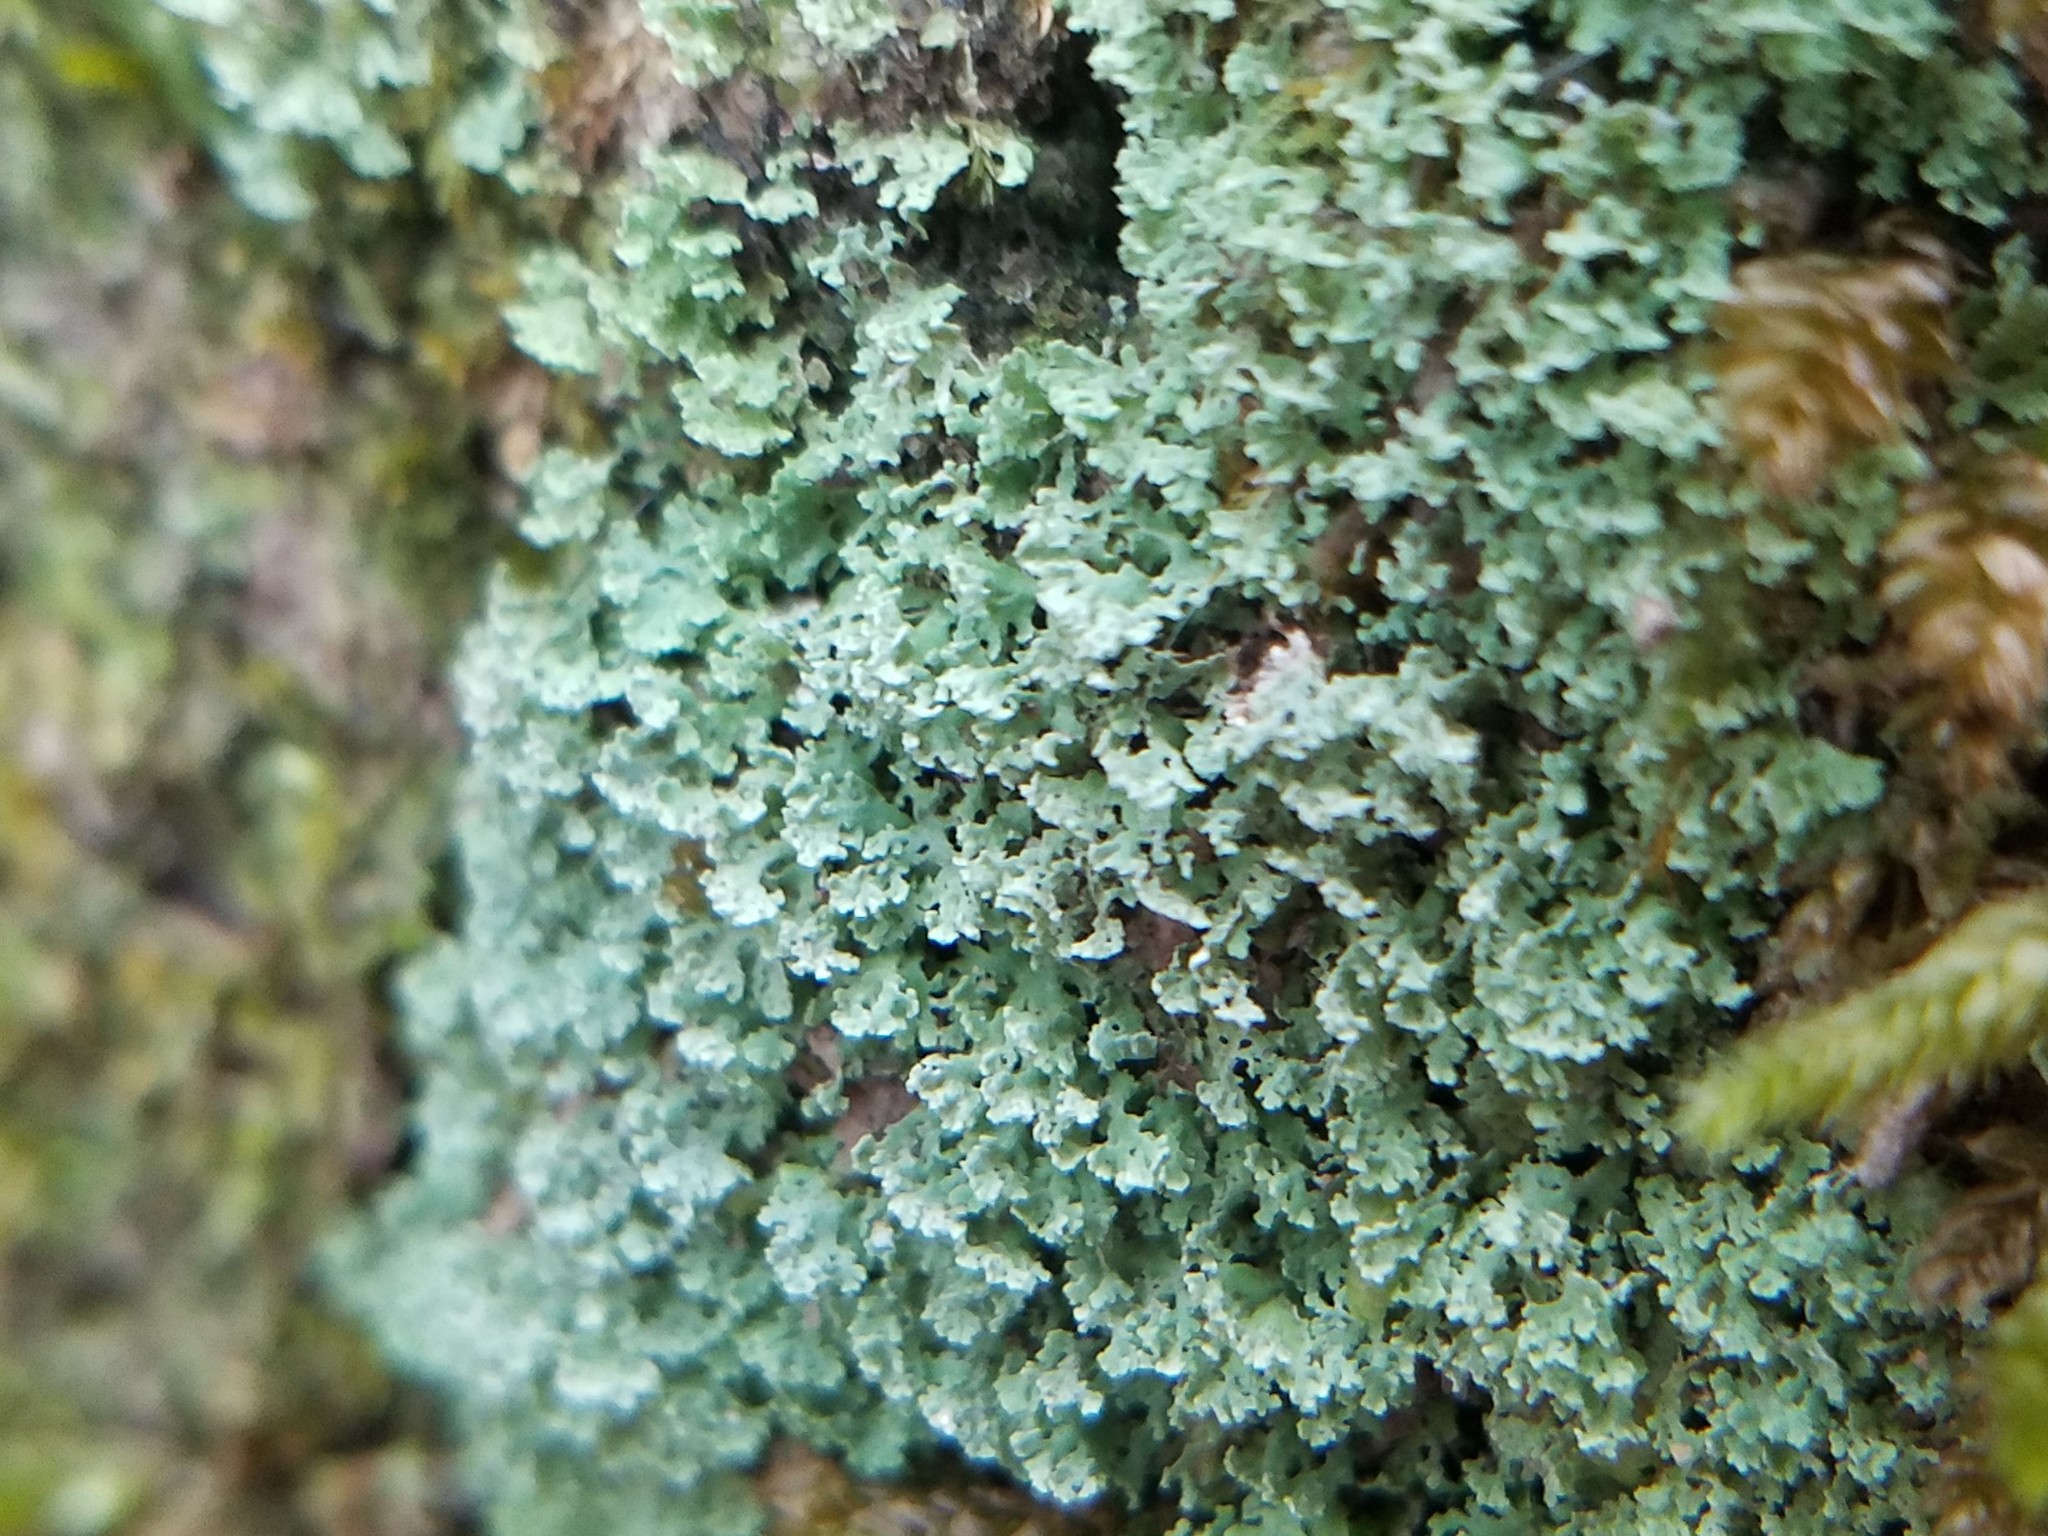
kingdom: Fungi
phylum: Ascomycota
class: Lecanoromycetes
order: Lecanorales
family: Cladoniaceae
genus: Cladonia
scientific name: Cladonia stipitata
